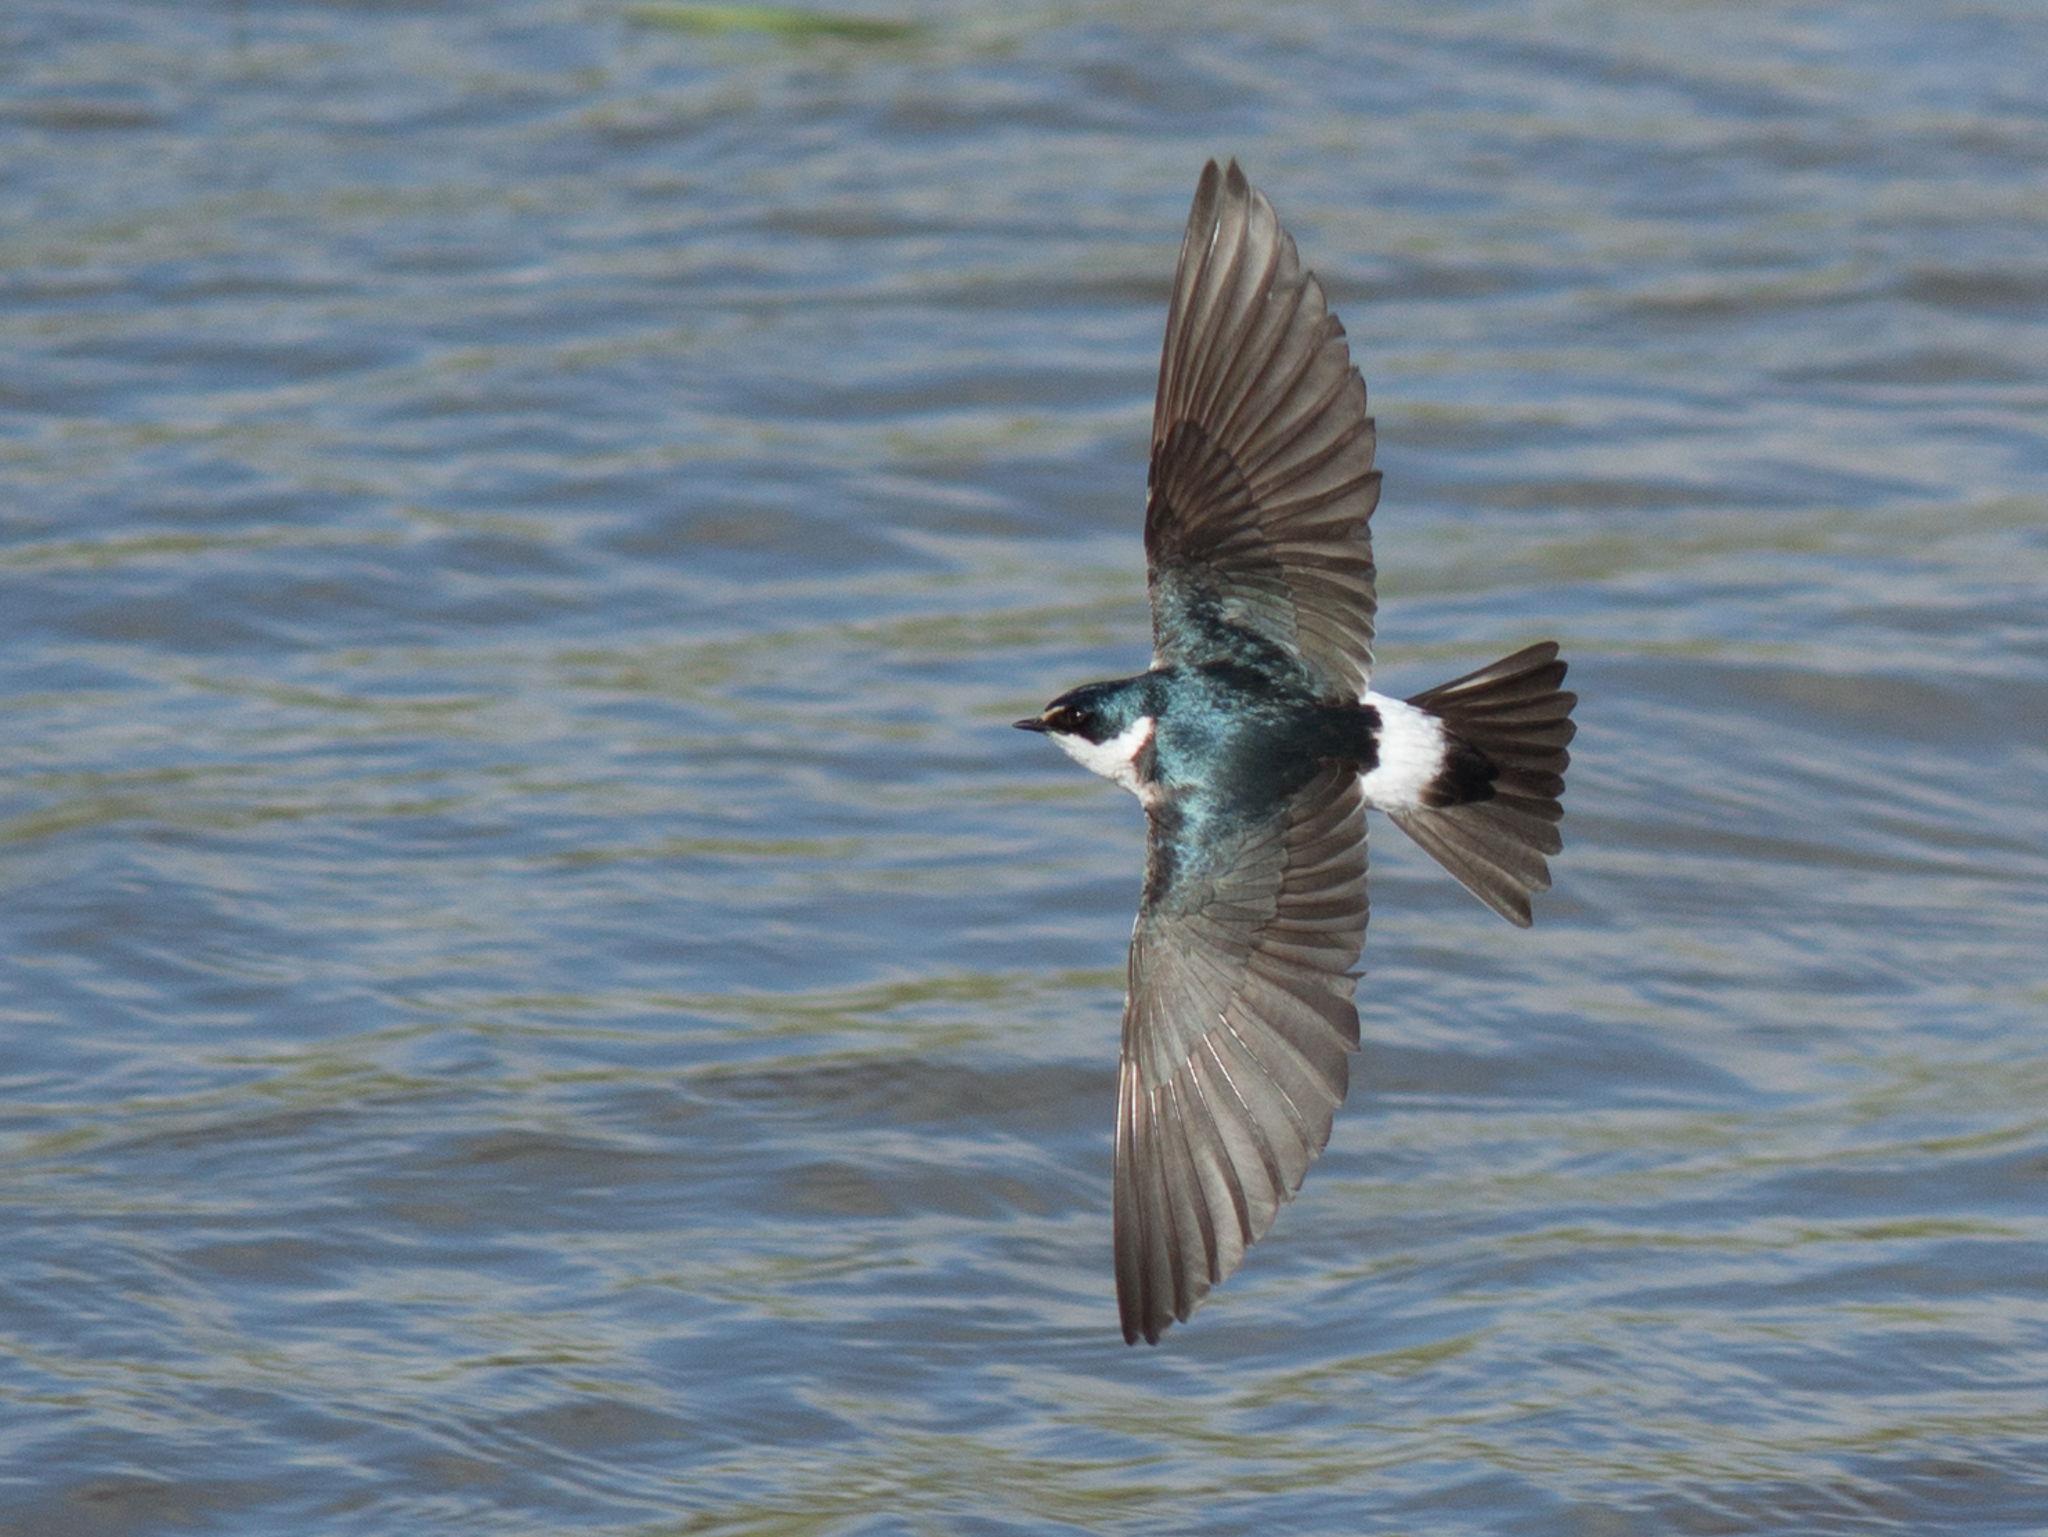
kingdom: Animalia
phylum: Chordata
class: Aves
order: Passeriformes
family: Hirundinidae
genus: Tachycineta
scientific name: Tachycineta leucorrhoa
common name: White-rumped swallow
